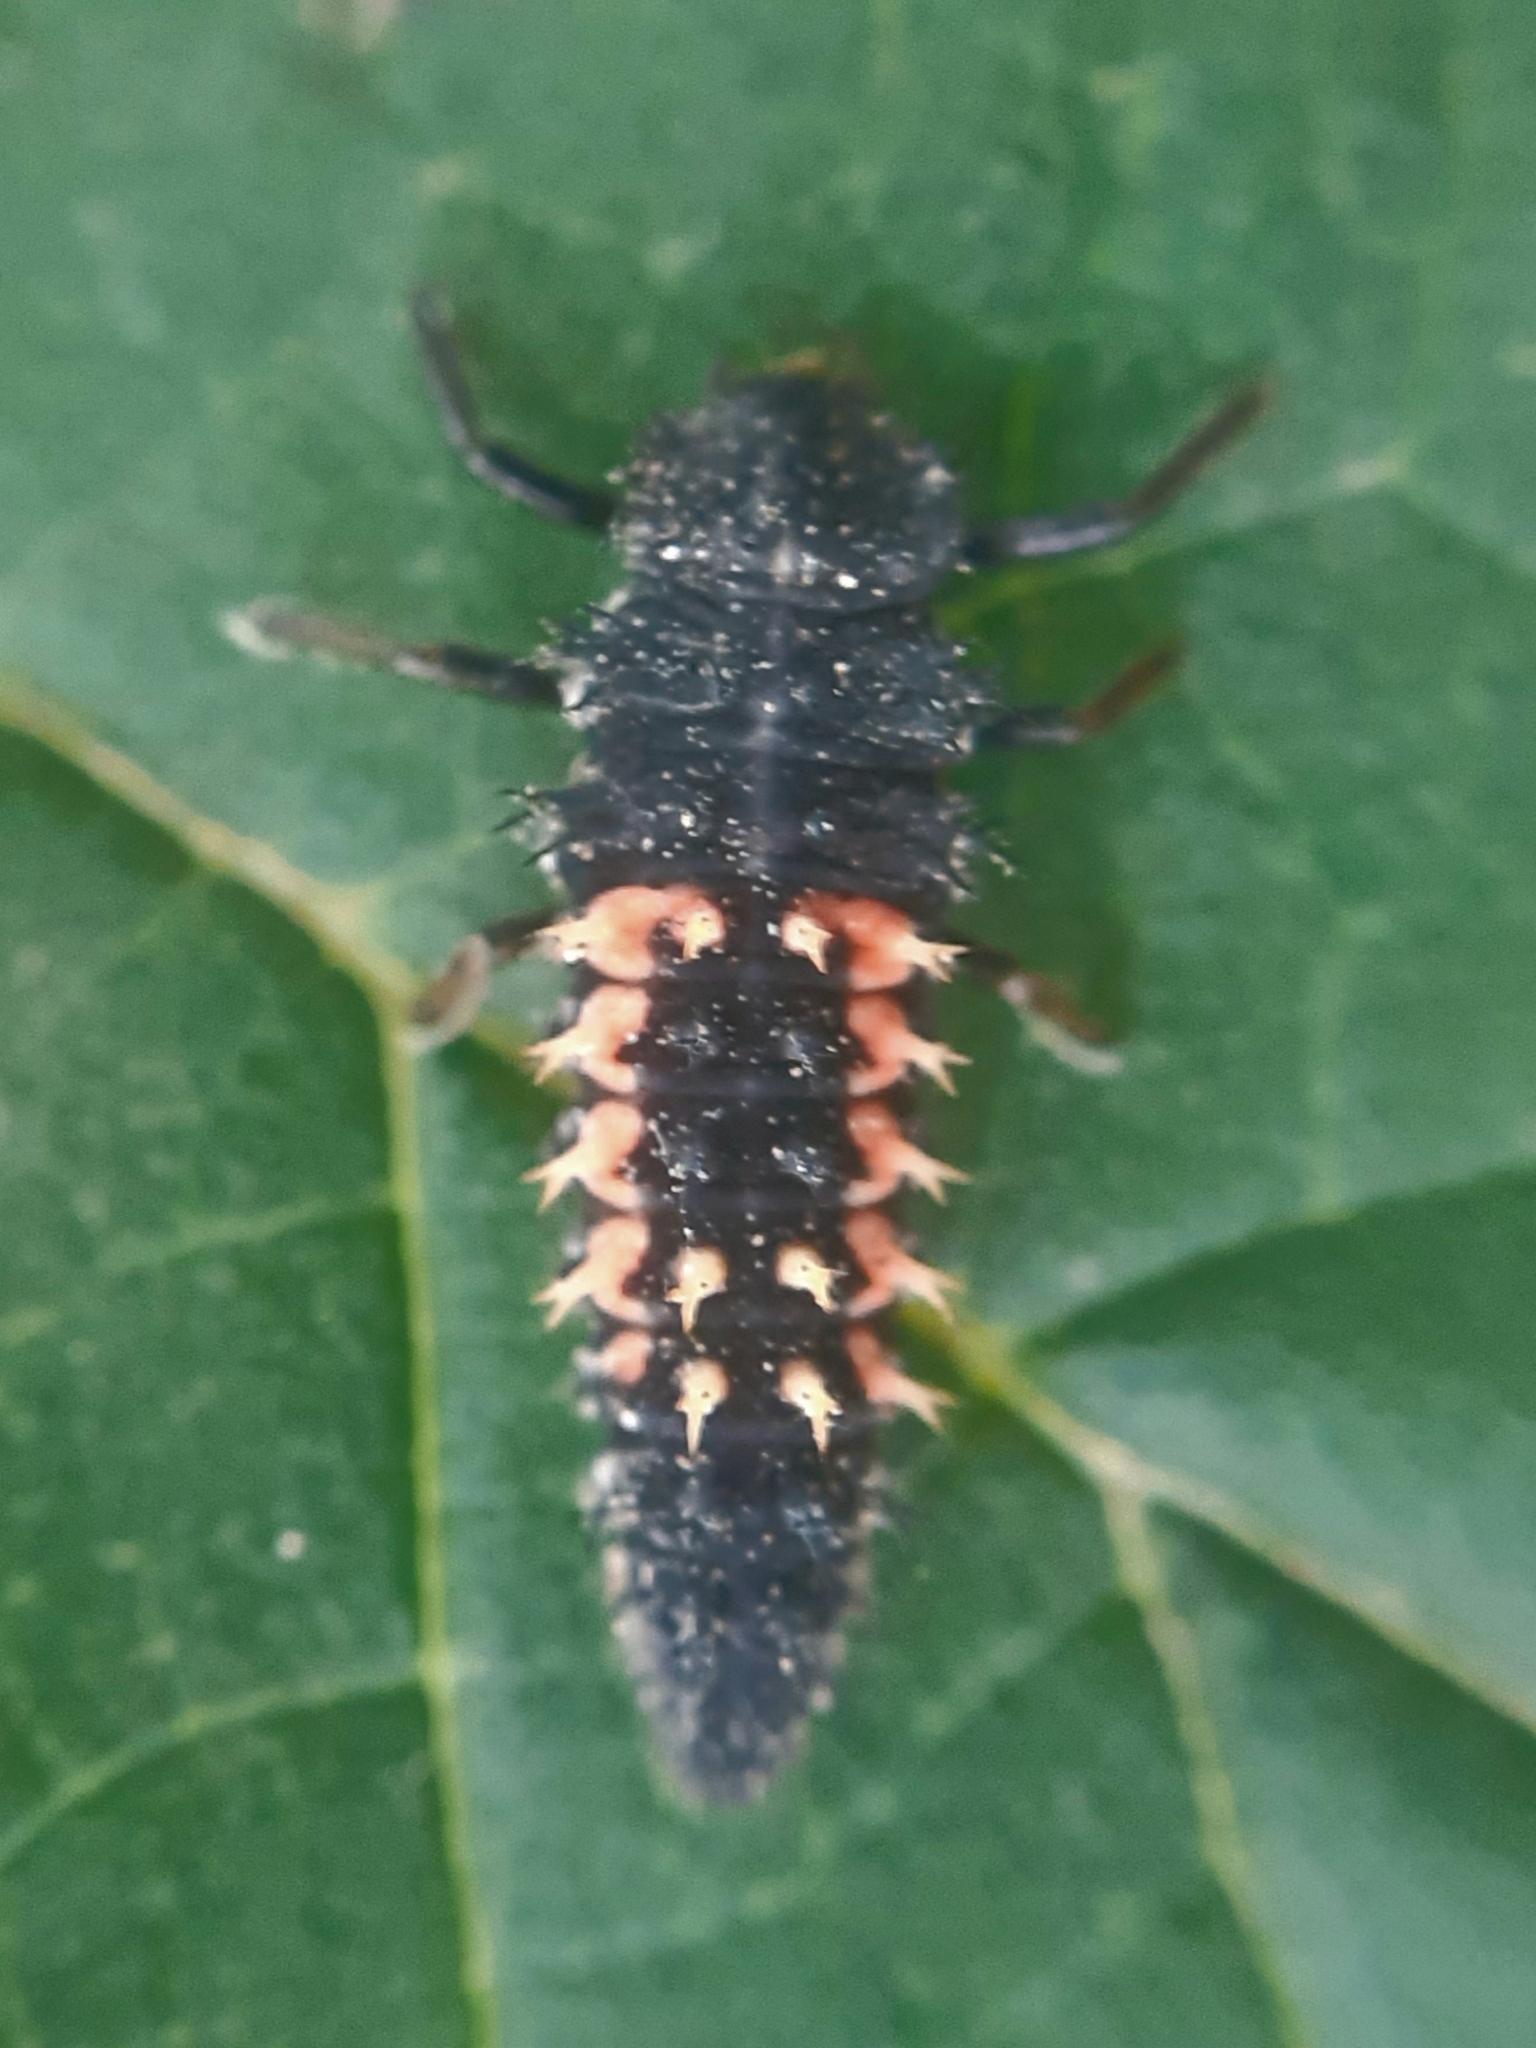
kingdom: Animalia
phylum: Arthropoda
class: Insecta
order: Coleoptera
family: Coccinellidae
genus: Harmonia
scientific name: Harmonia axyridis
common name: Harlequin ladybird
